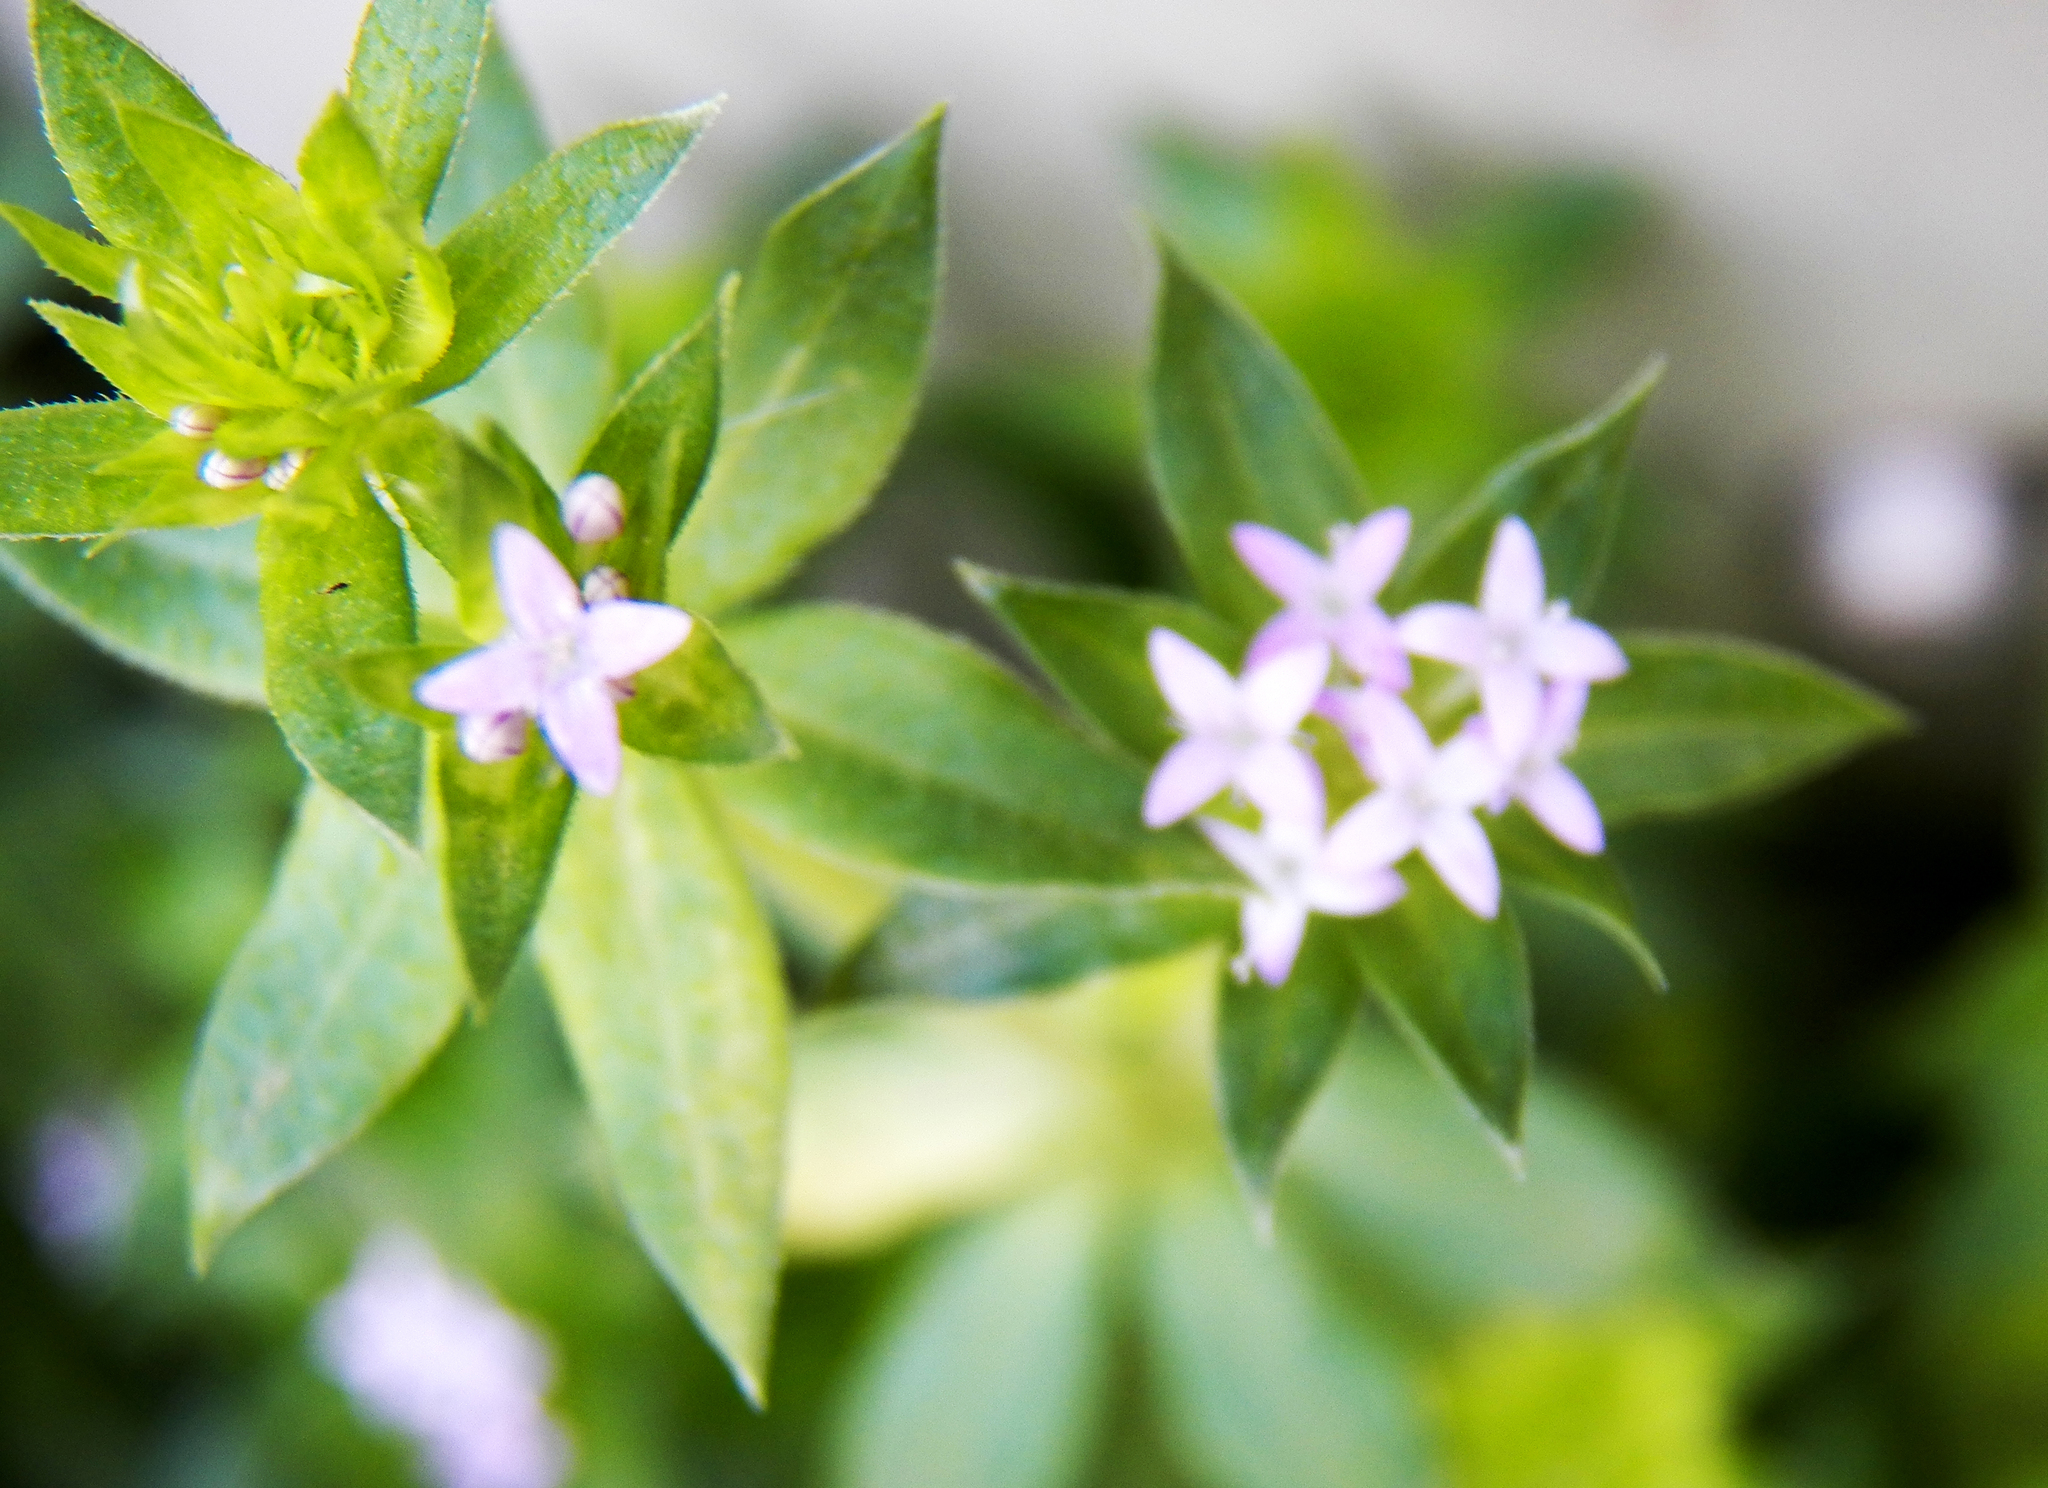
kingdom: Plantae
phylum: Tracheophyta
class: Magnoliopsida
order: Gentianales
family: Rubiaceae
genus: Sherardia
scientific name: Sherardia arvensis
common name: Field madder
